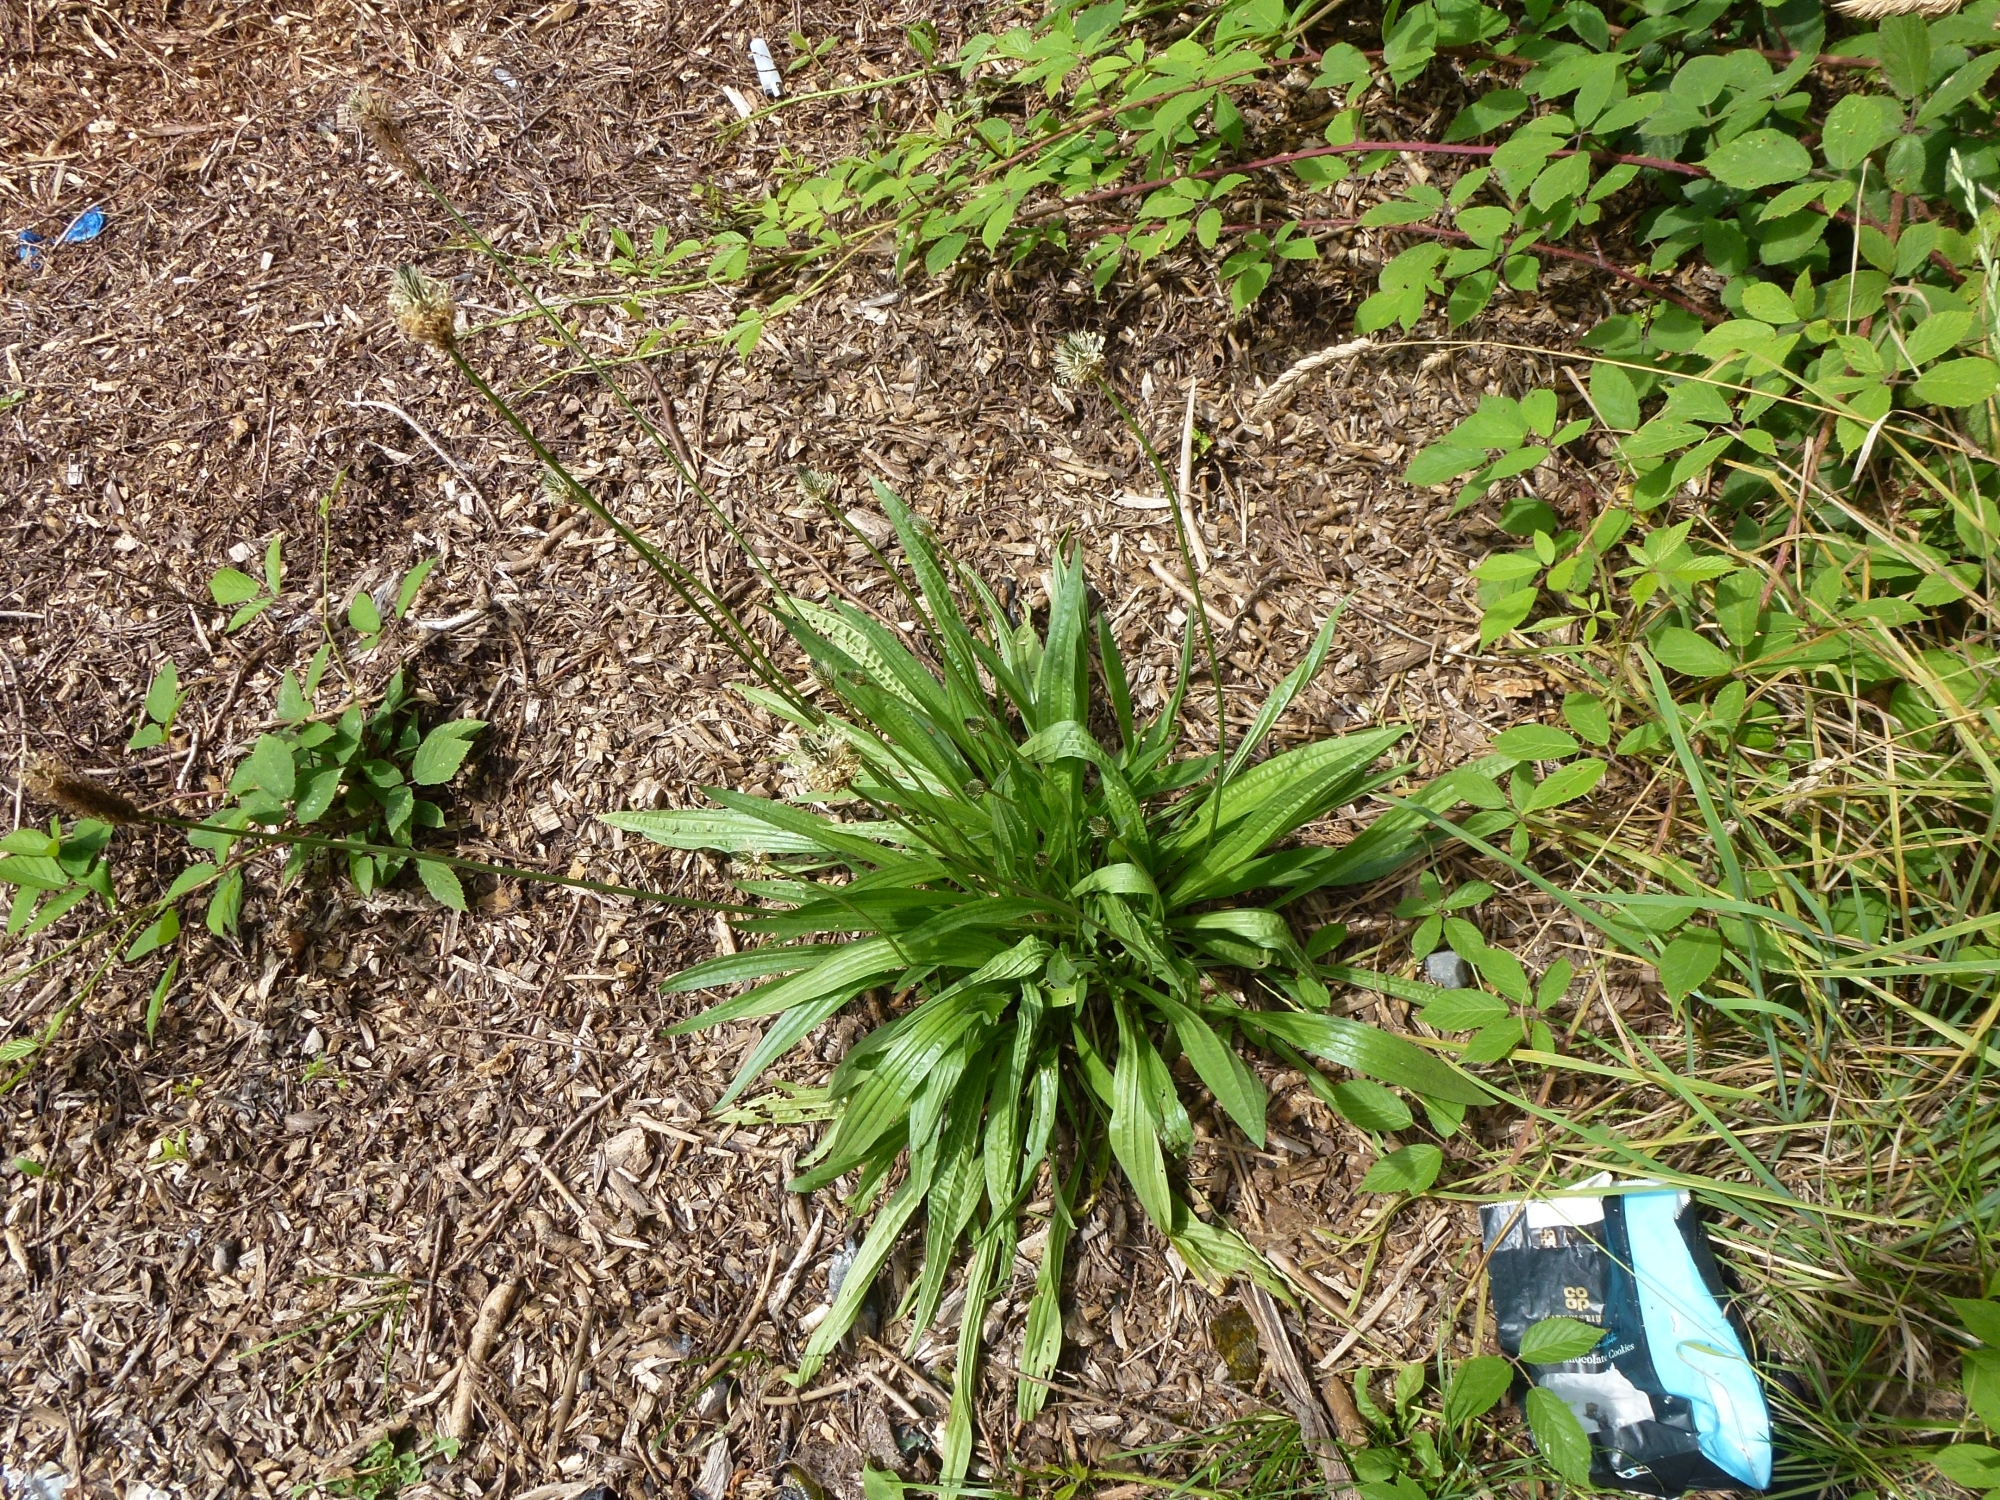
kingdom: Plantae
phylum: Tracheophyta
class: Magnoliopsida
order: Lamiales
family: Plantaginaceae
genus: Plantago
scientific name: Plantago lanceolata
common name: Ribwort plantain
